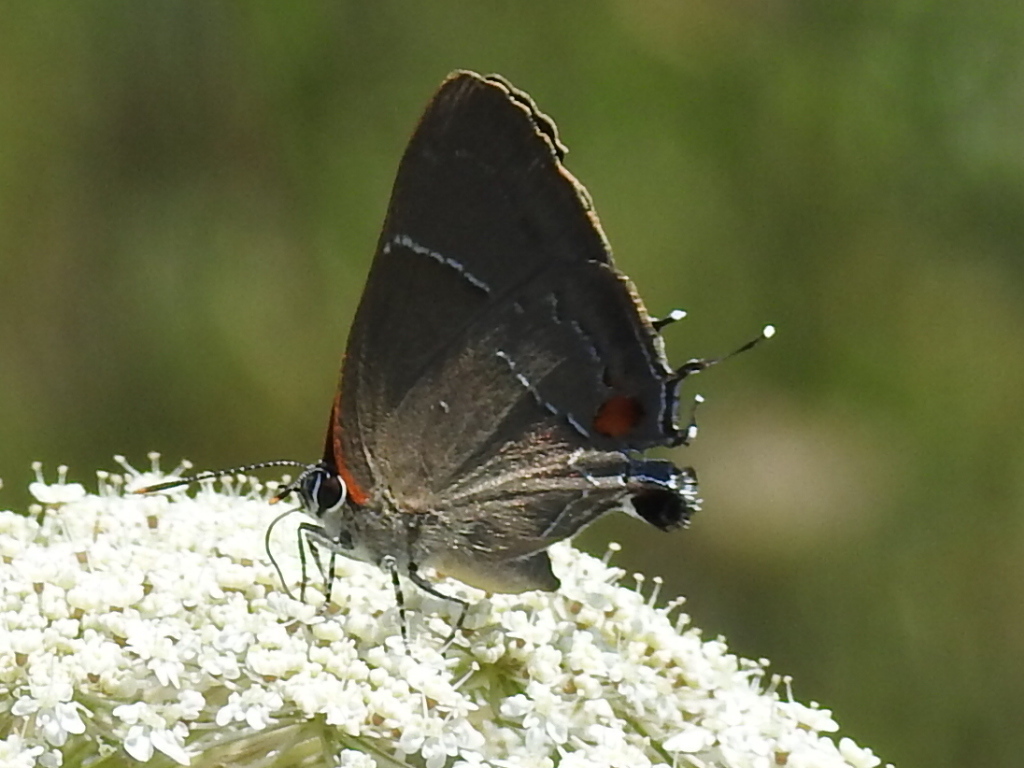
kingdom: Animalia
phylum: Arthropoda
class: Insecta
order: Lepidoptera
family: Lycaenidae
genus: Parrhasius
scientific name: Parrhasius m-album
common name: White m hairstreak
